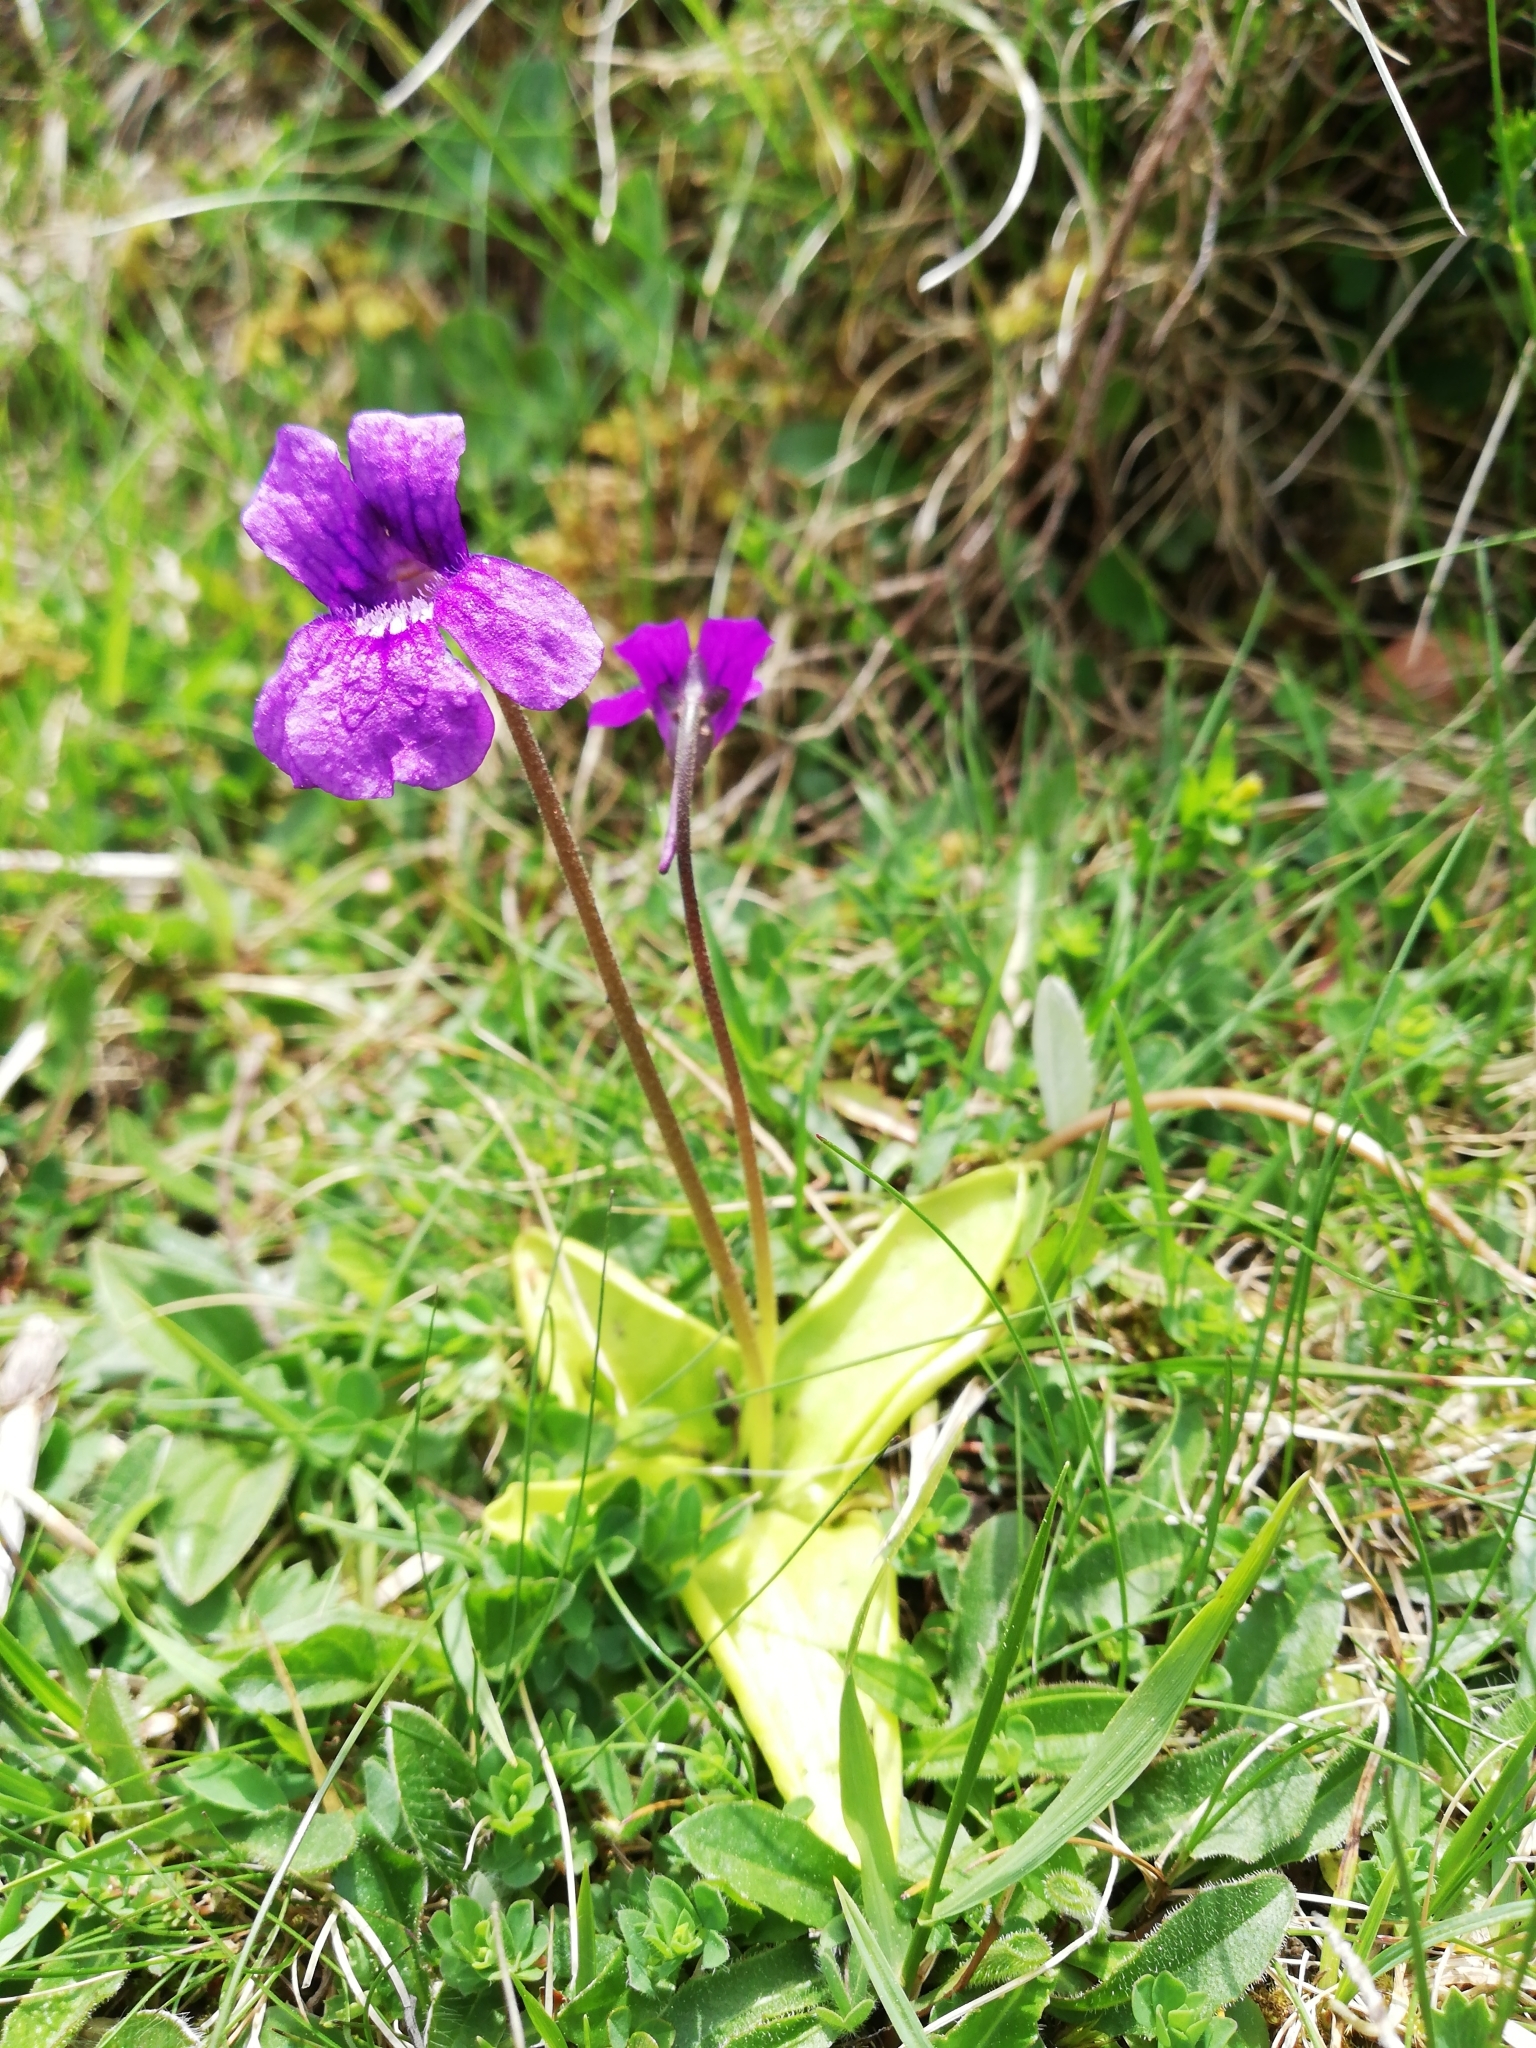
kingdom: Plantae
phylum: Tracheophyta
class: Magnoliopsida
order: Lamiales
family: Lentibulariaceae
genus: Pinguicula
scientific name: Pinguicula grandiflora
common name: Large-flowered butterwort
